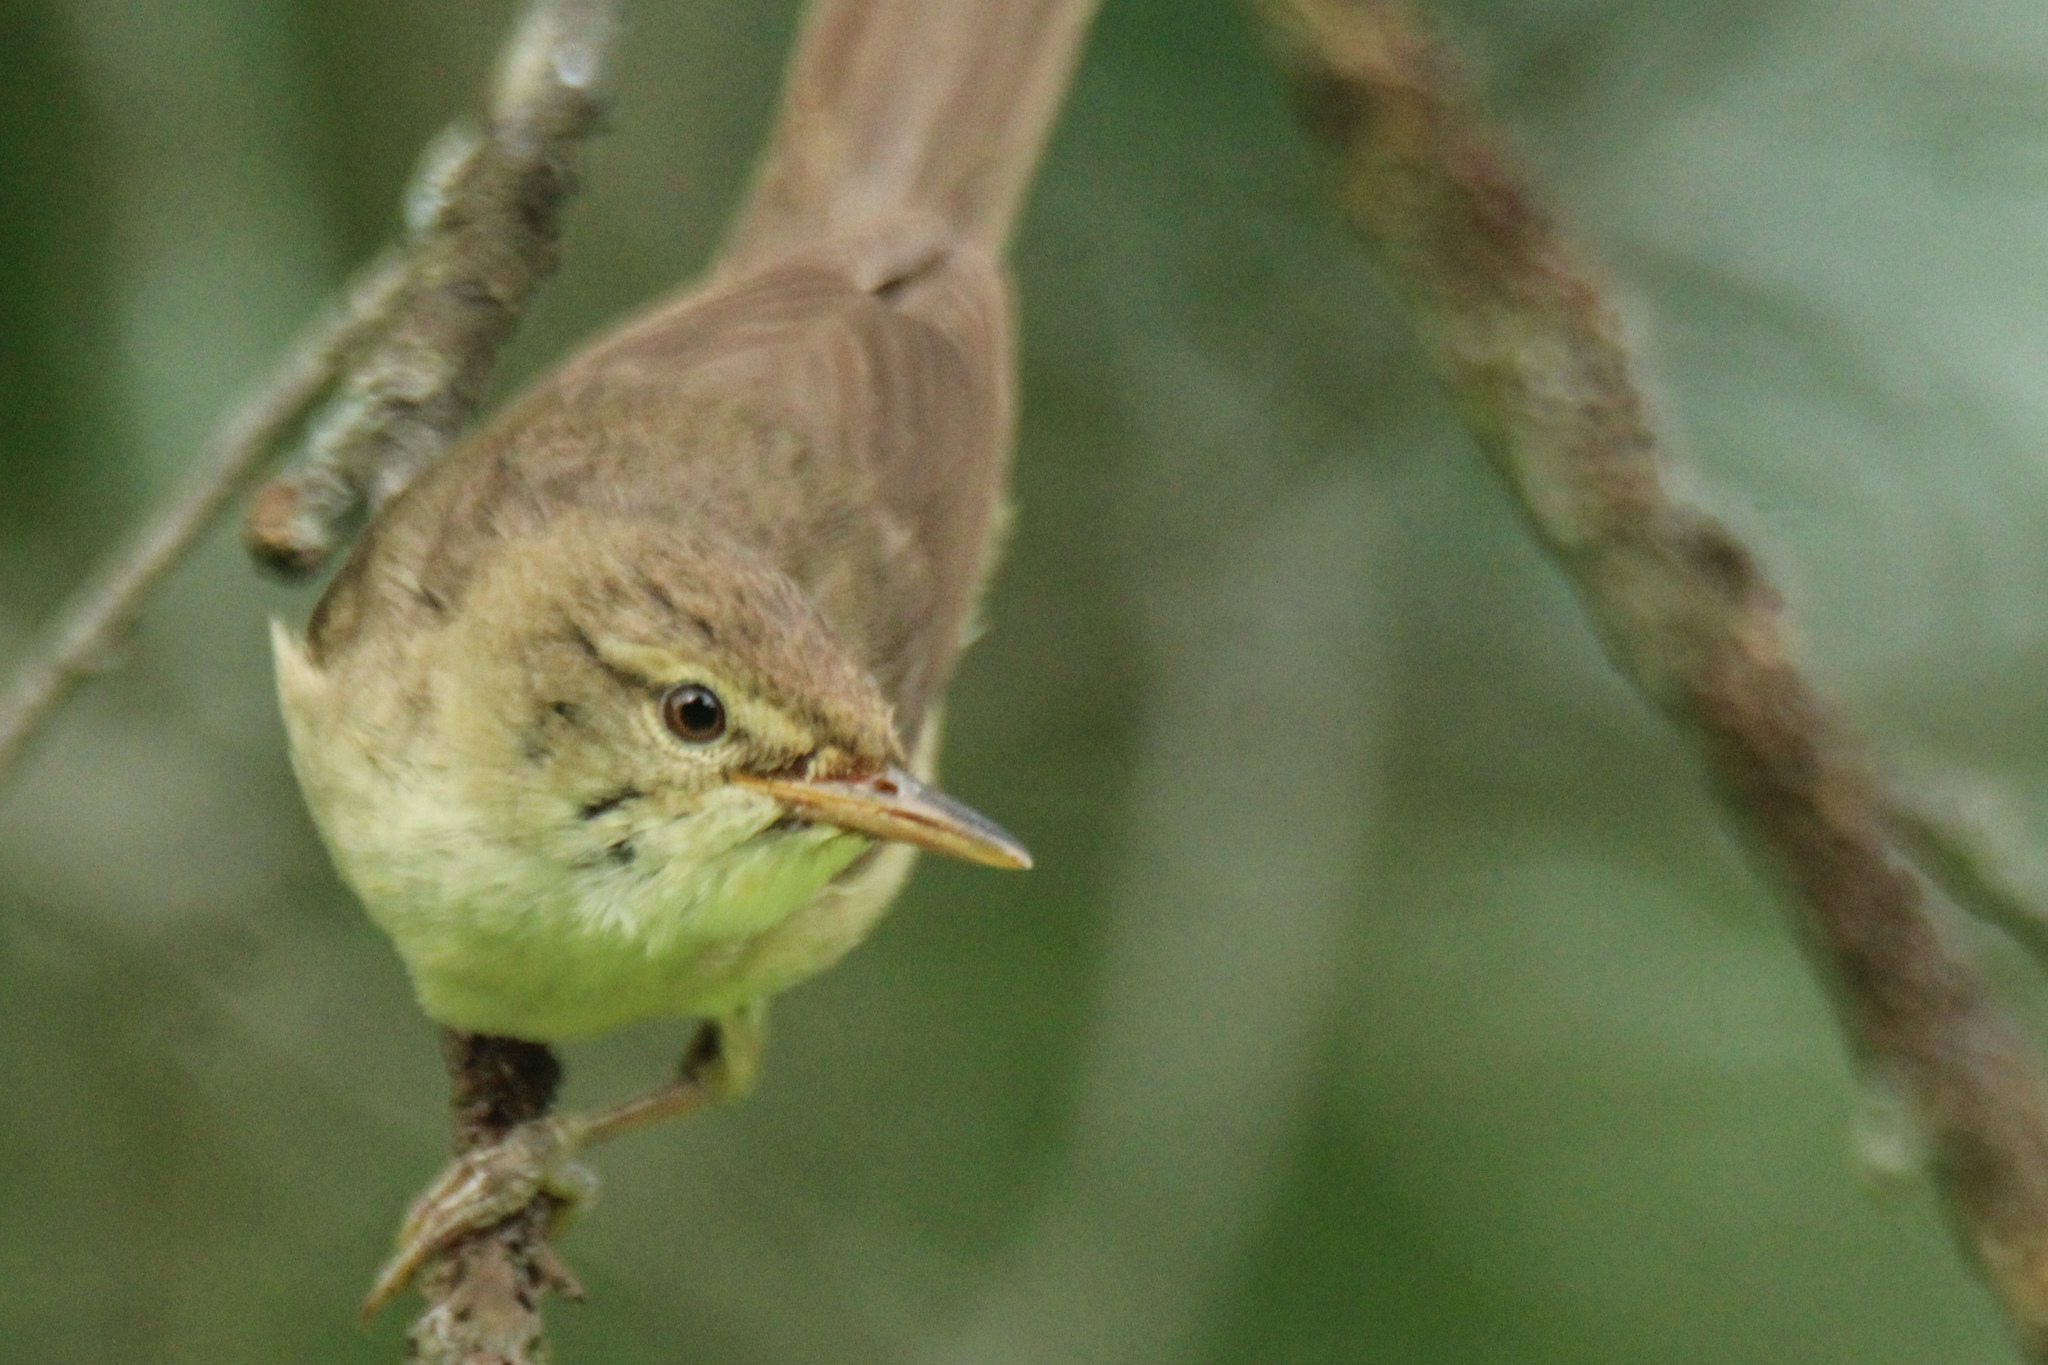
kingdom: Animalia
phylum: Chordata
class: Aves
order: Passeriformes
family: Acrocephalidae
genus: Acrocephalus
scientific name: Acrocephalus dumetorum
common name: Blyth's reed warbler
